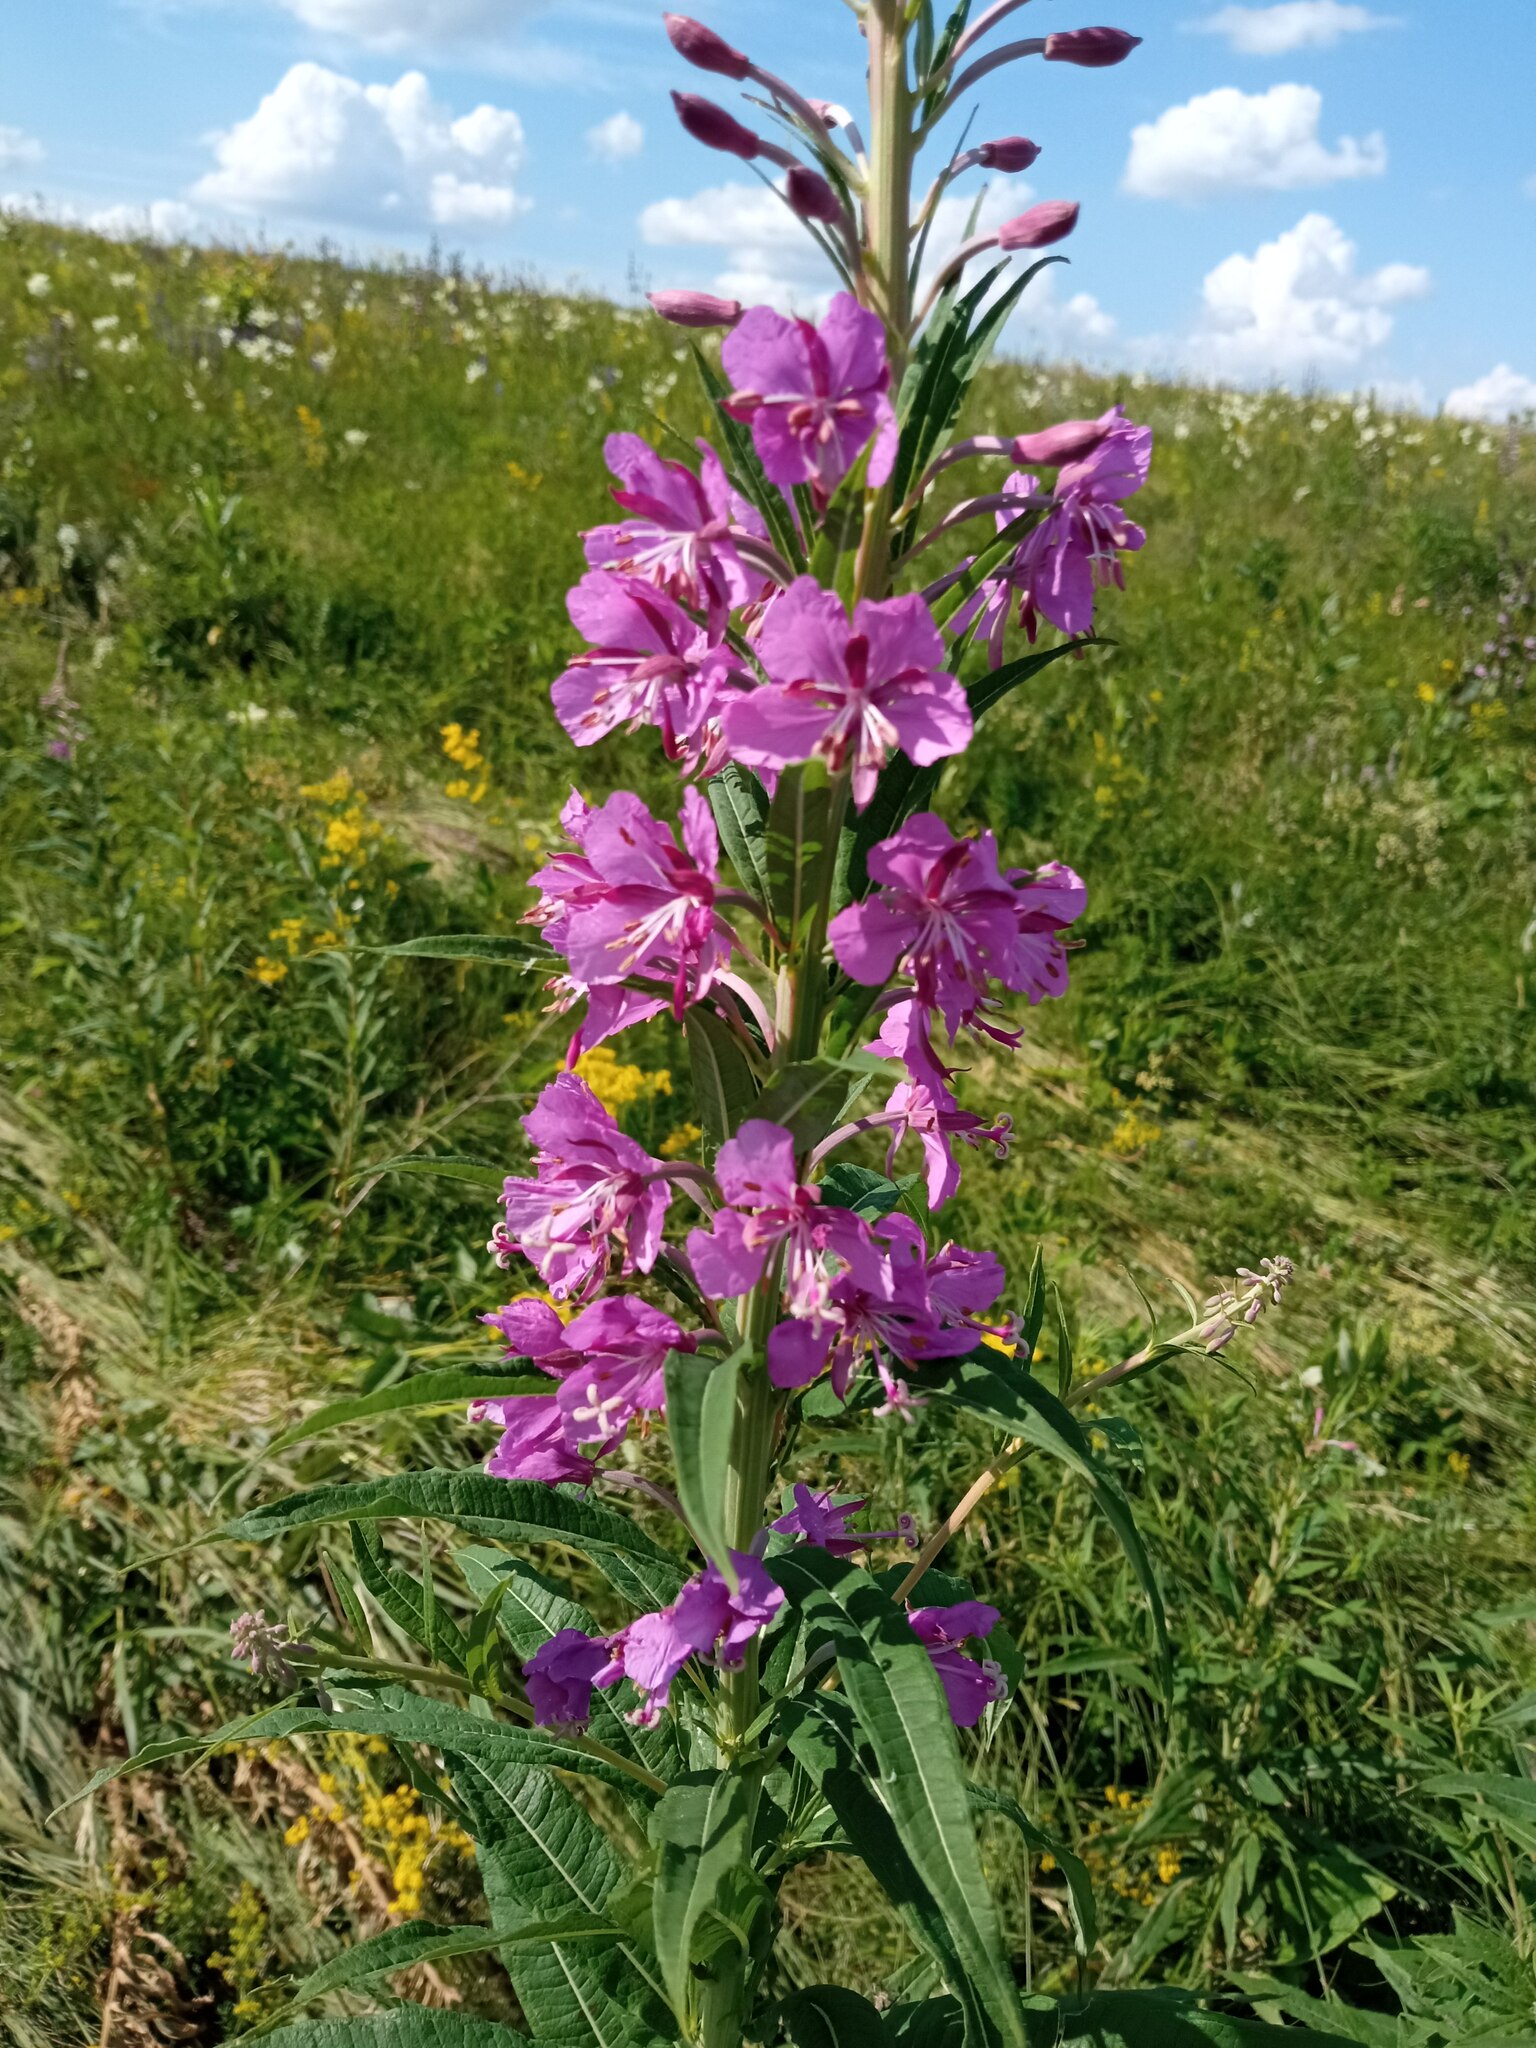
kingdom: Plantae
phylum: Tracheophyta
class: Magnoliopsida
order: Myrtales
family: Onagraceae
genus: Chamaenerion
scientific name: Chamaenerion angustifolium
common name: Fireweed
